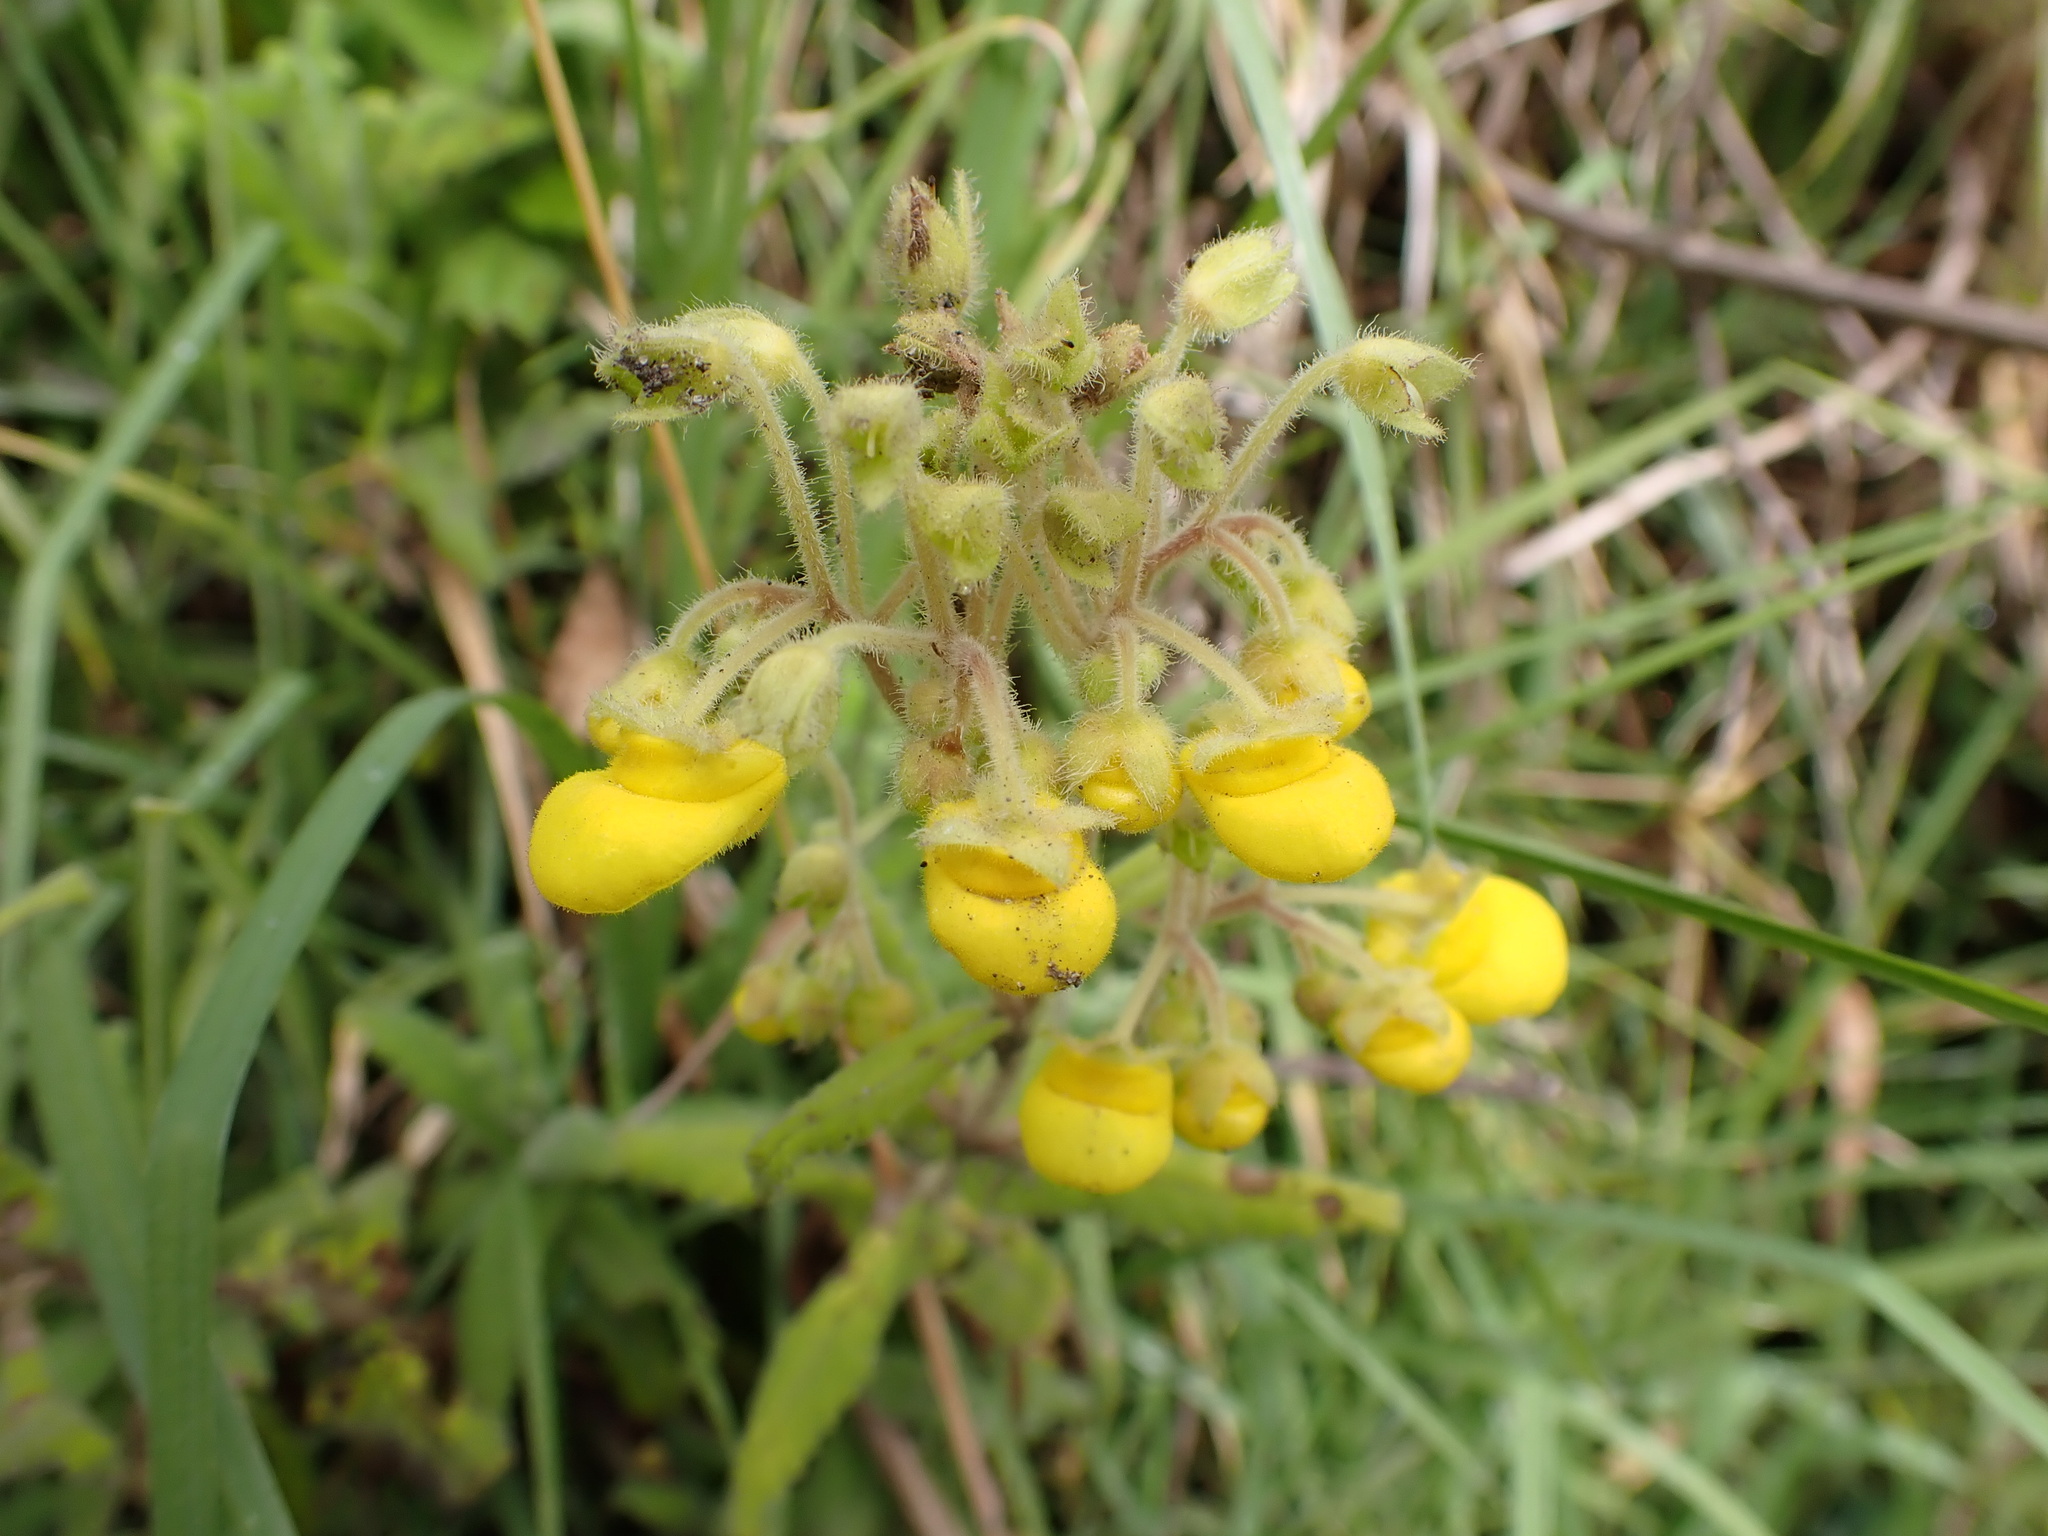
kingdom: Plantae
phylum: Tracheophyta
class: Magnoliopsida
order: Lamiales
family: Calceolariaceae
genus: Calceolaria
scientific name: Calceolaria crenata
